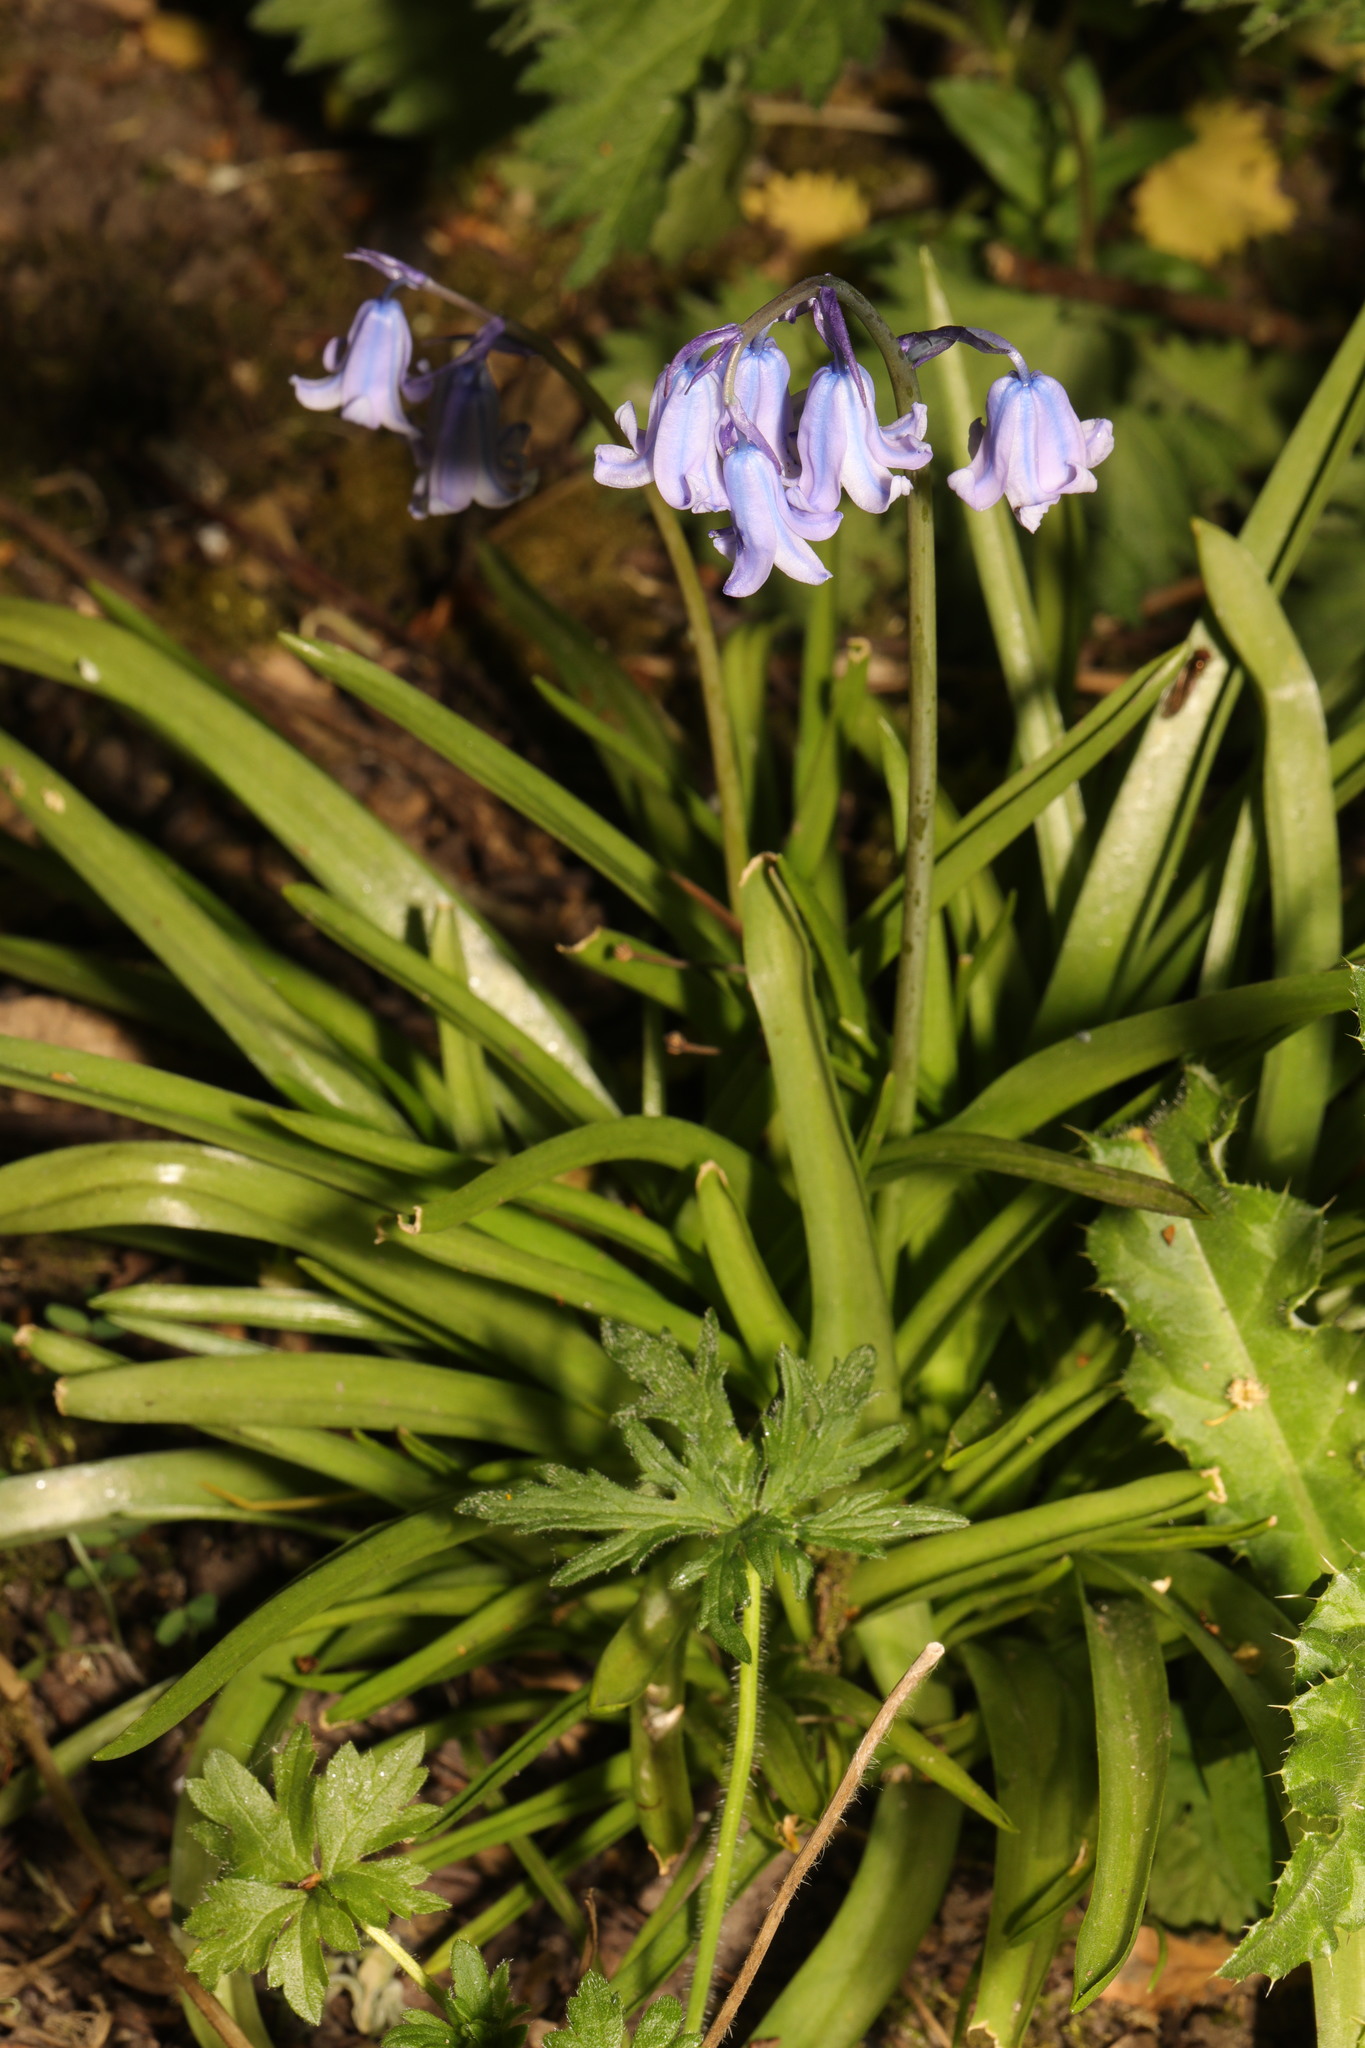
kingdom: Plantae
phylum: Tracheophyta
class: Liliopsida
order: Asparagales
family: Asparagaceae
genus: Hyacinthoides
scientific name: Hyacinthoides massartiana
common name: Hyacinthoides
